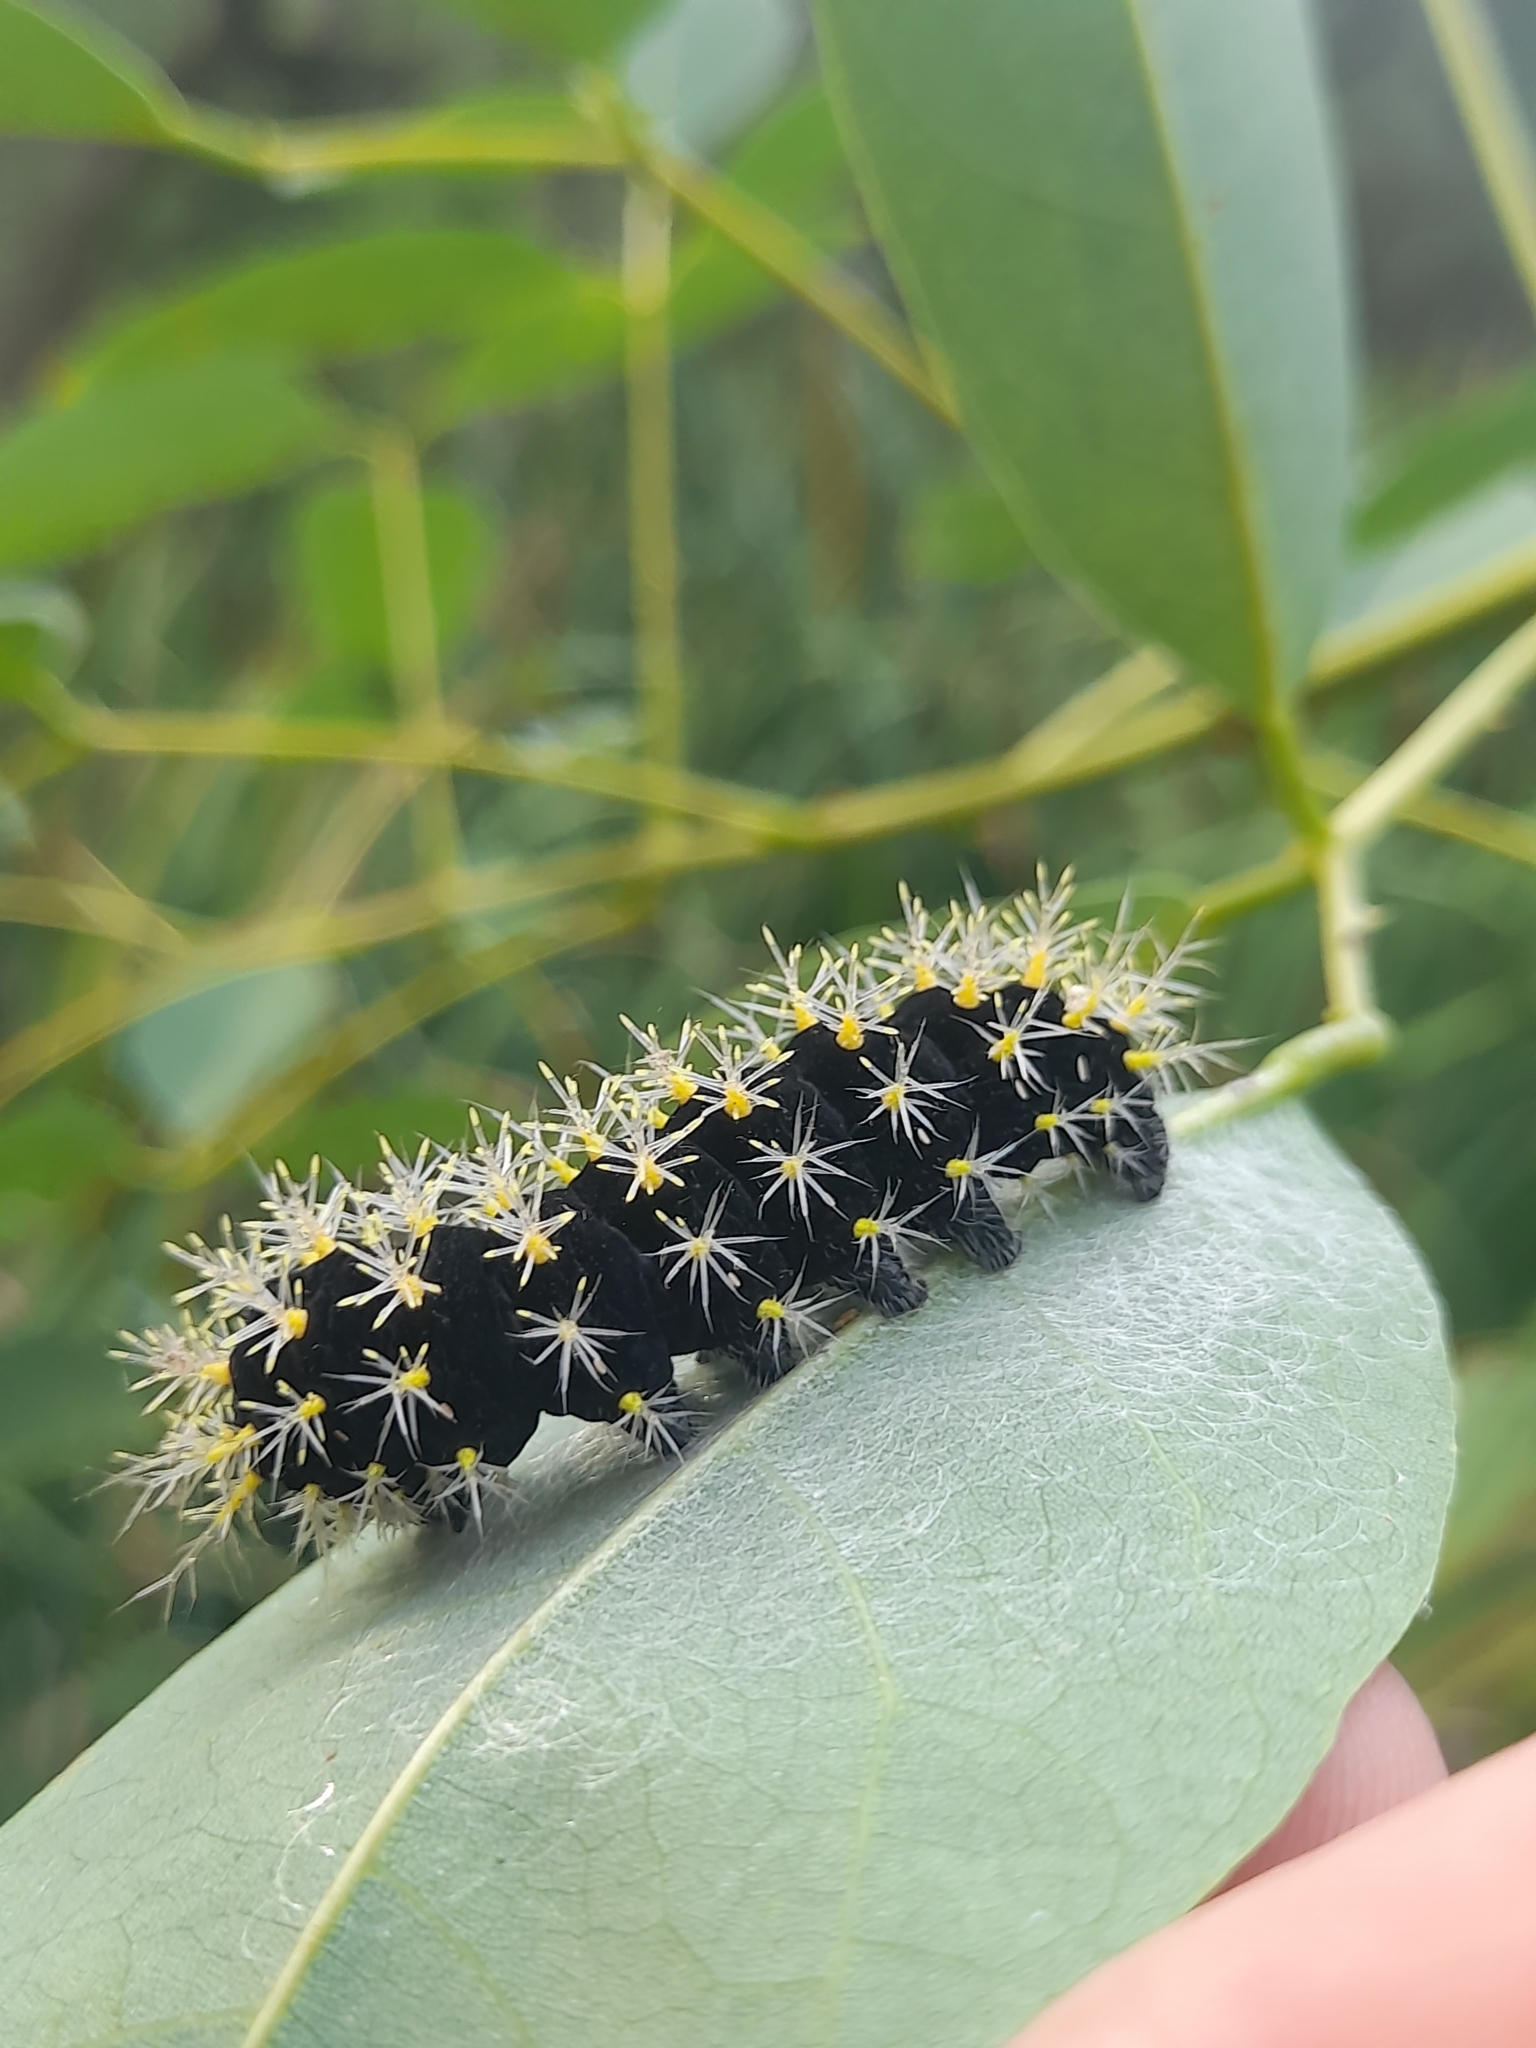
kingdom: Animalia
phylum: Arthropoda
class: Insecta
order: Lepidoptera
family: Saturniidae
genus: Leucanella
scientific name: Leucanella viridescens
